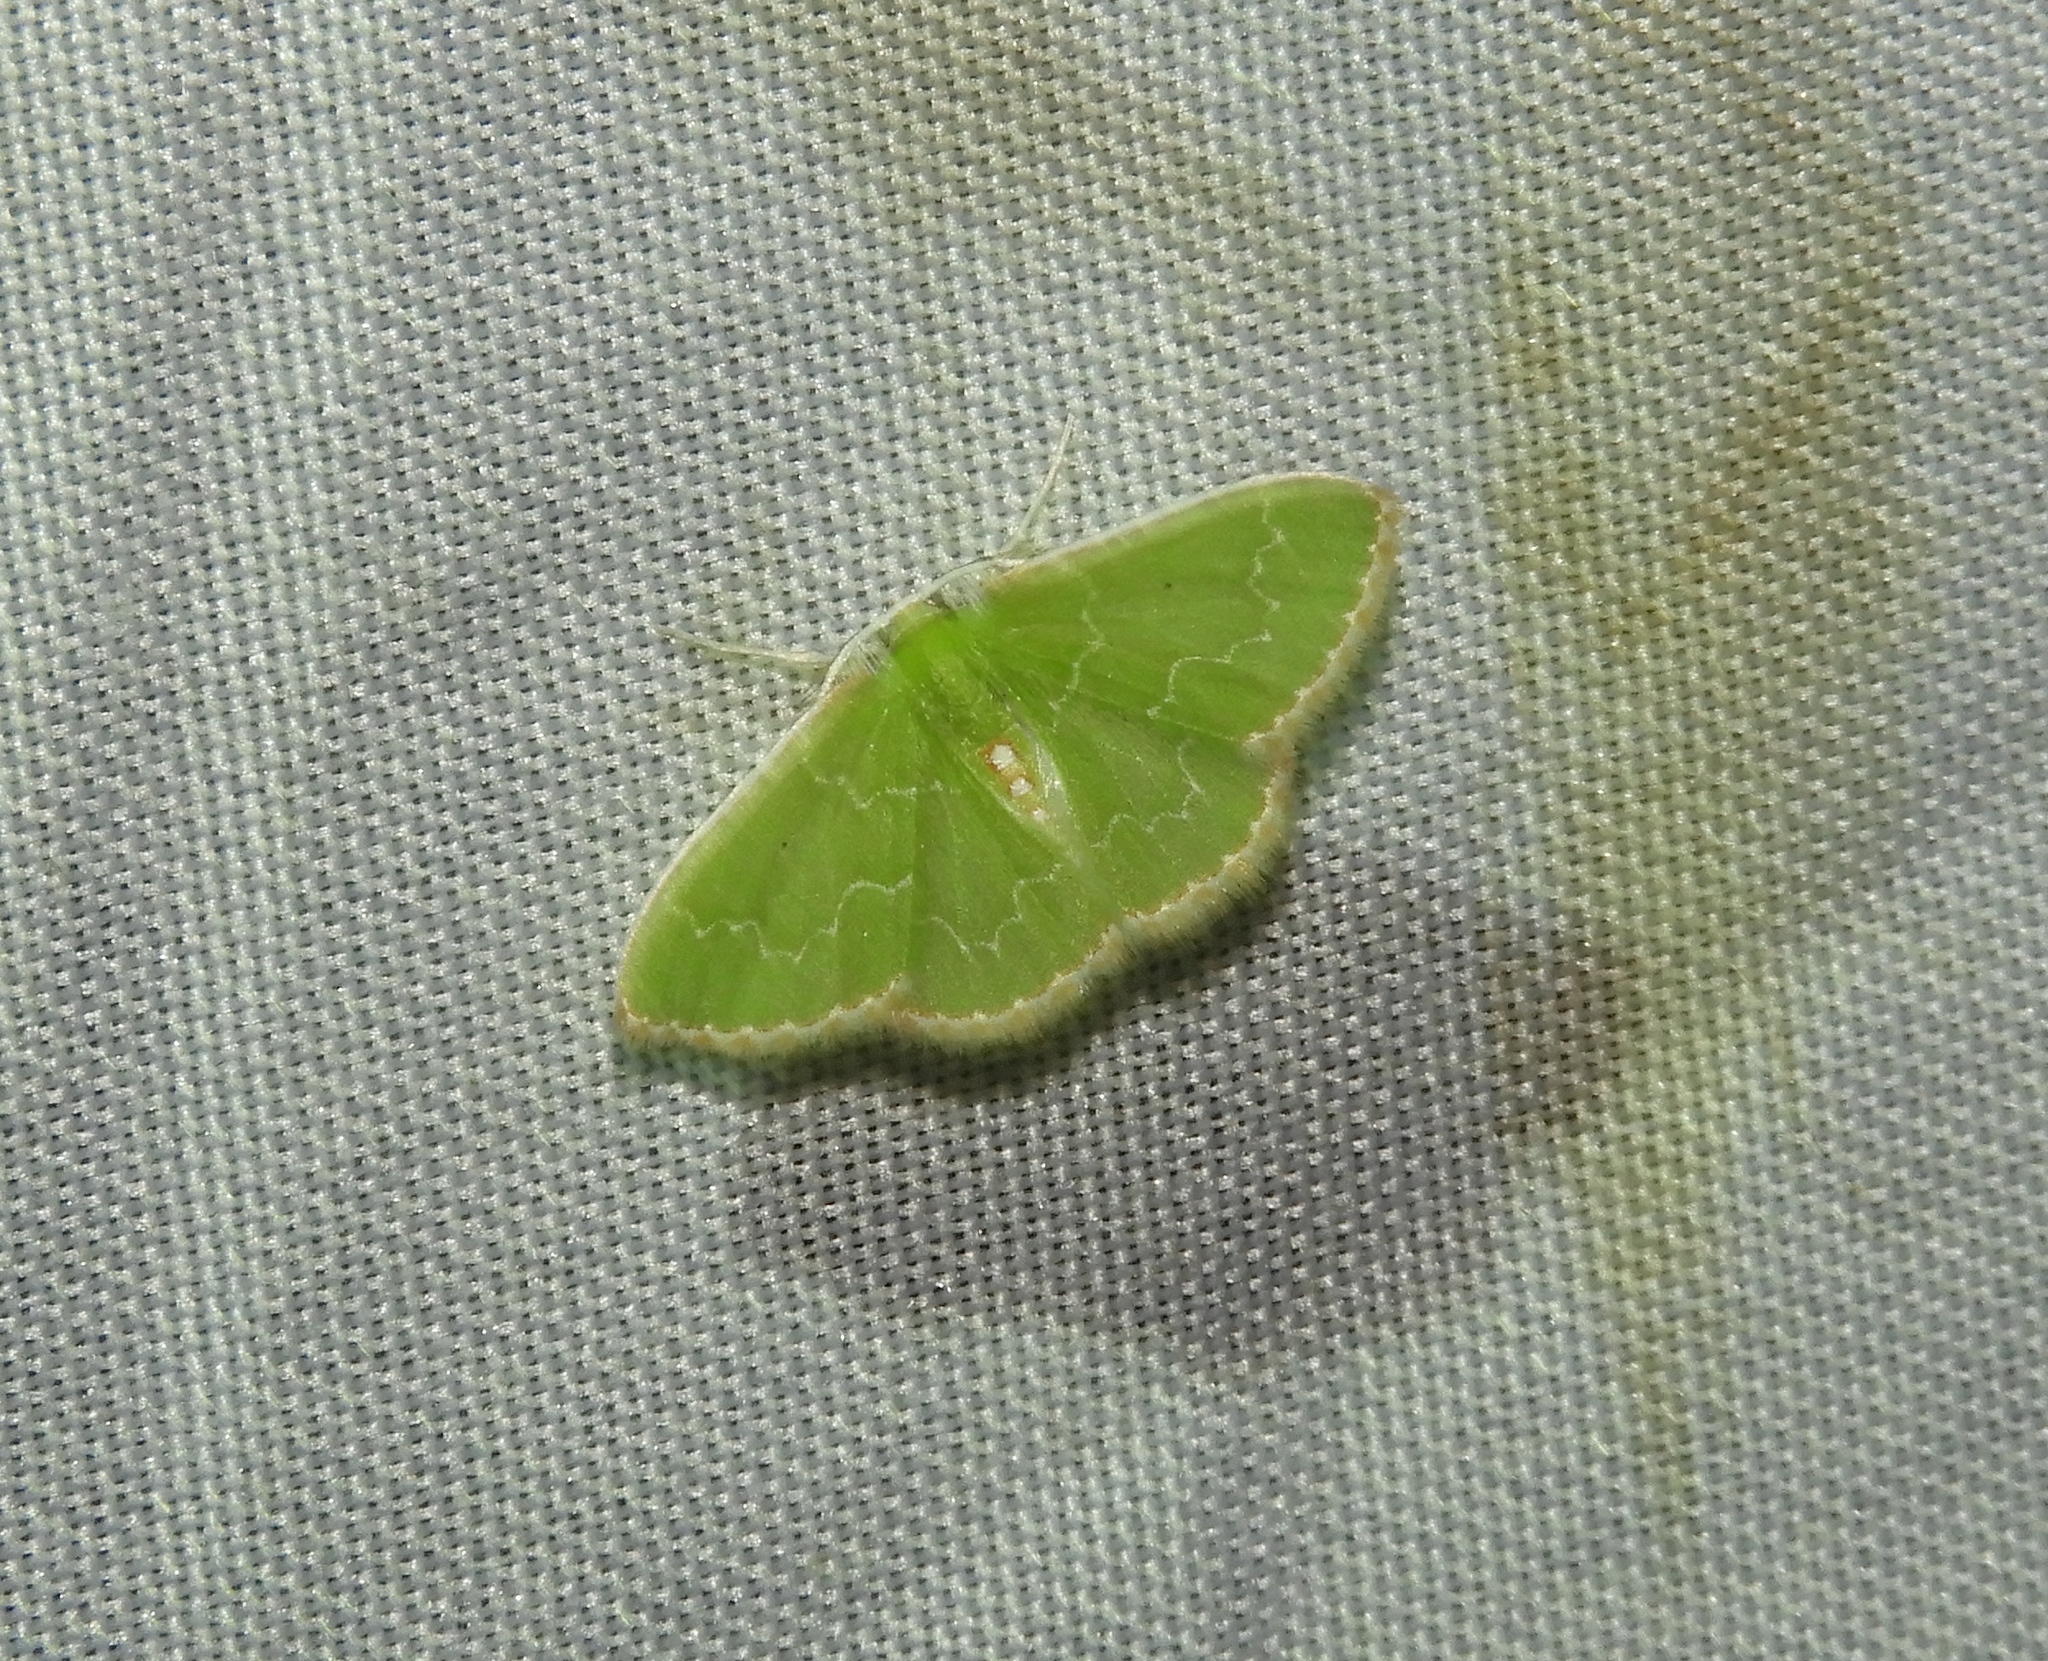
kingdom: Animalia
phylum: Arthropoda
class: Insecta
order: Lepidoptera
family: Geometridae
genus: Synchlora
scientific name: Synchlora frondaria
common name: Southern emerald
